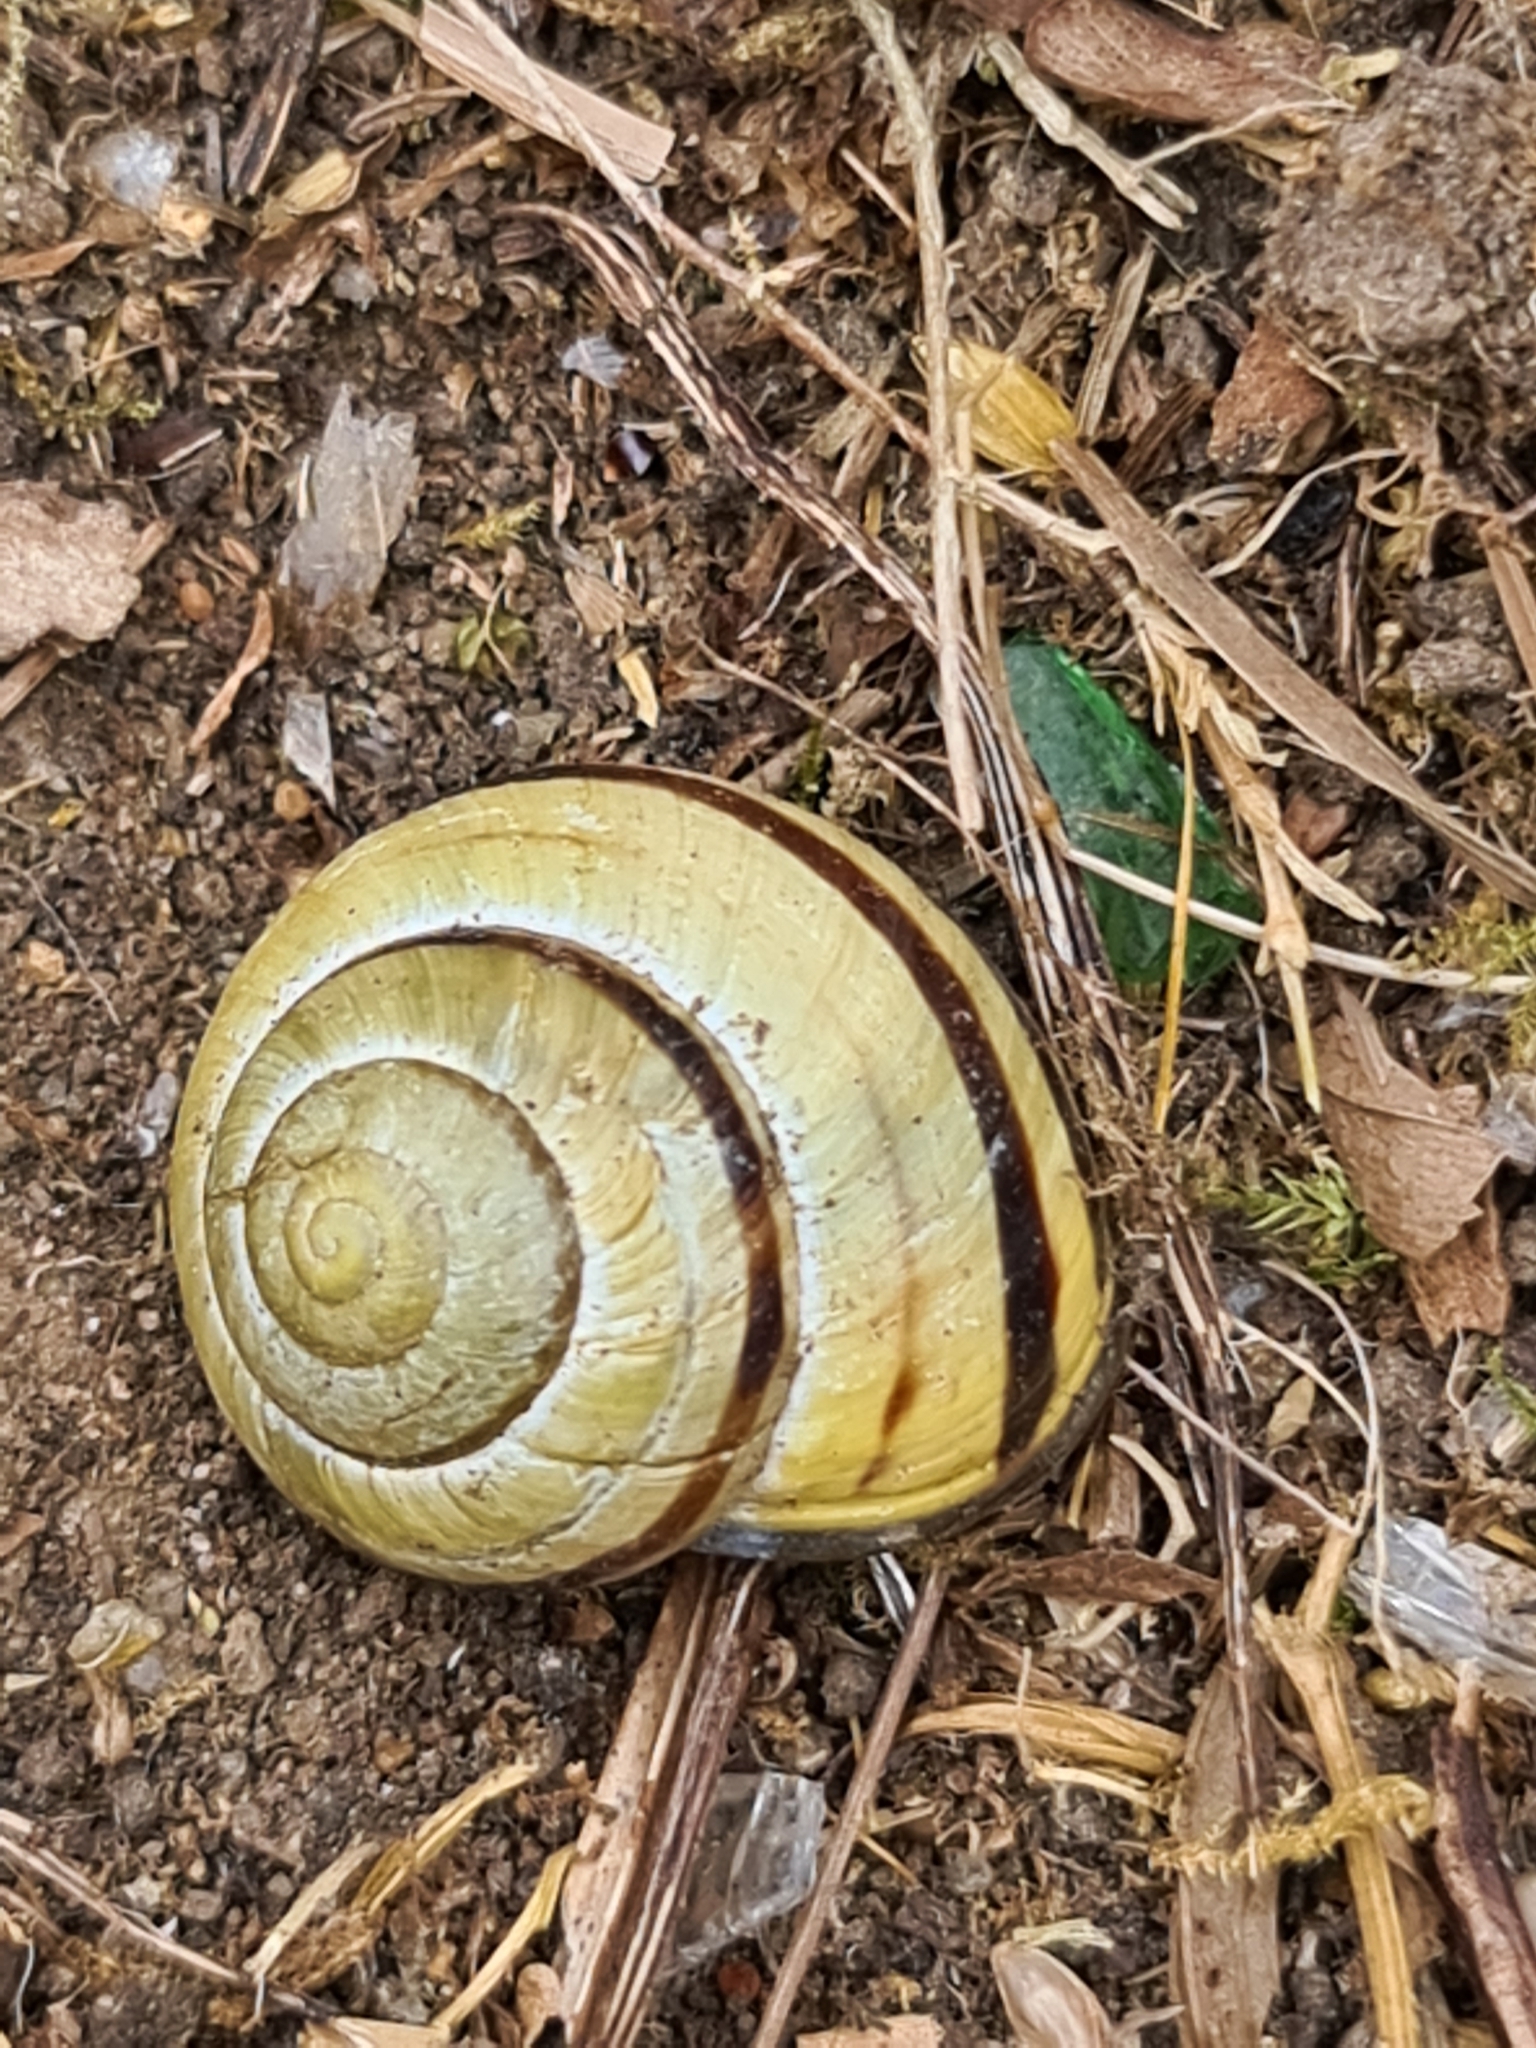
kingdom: Animalia
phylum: Mollusca
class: Gastropoda
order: Stylommatophora
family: Helicidae
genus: Cepaea
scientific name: Cepaea nemoralis
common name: Grovesnail
